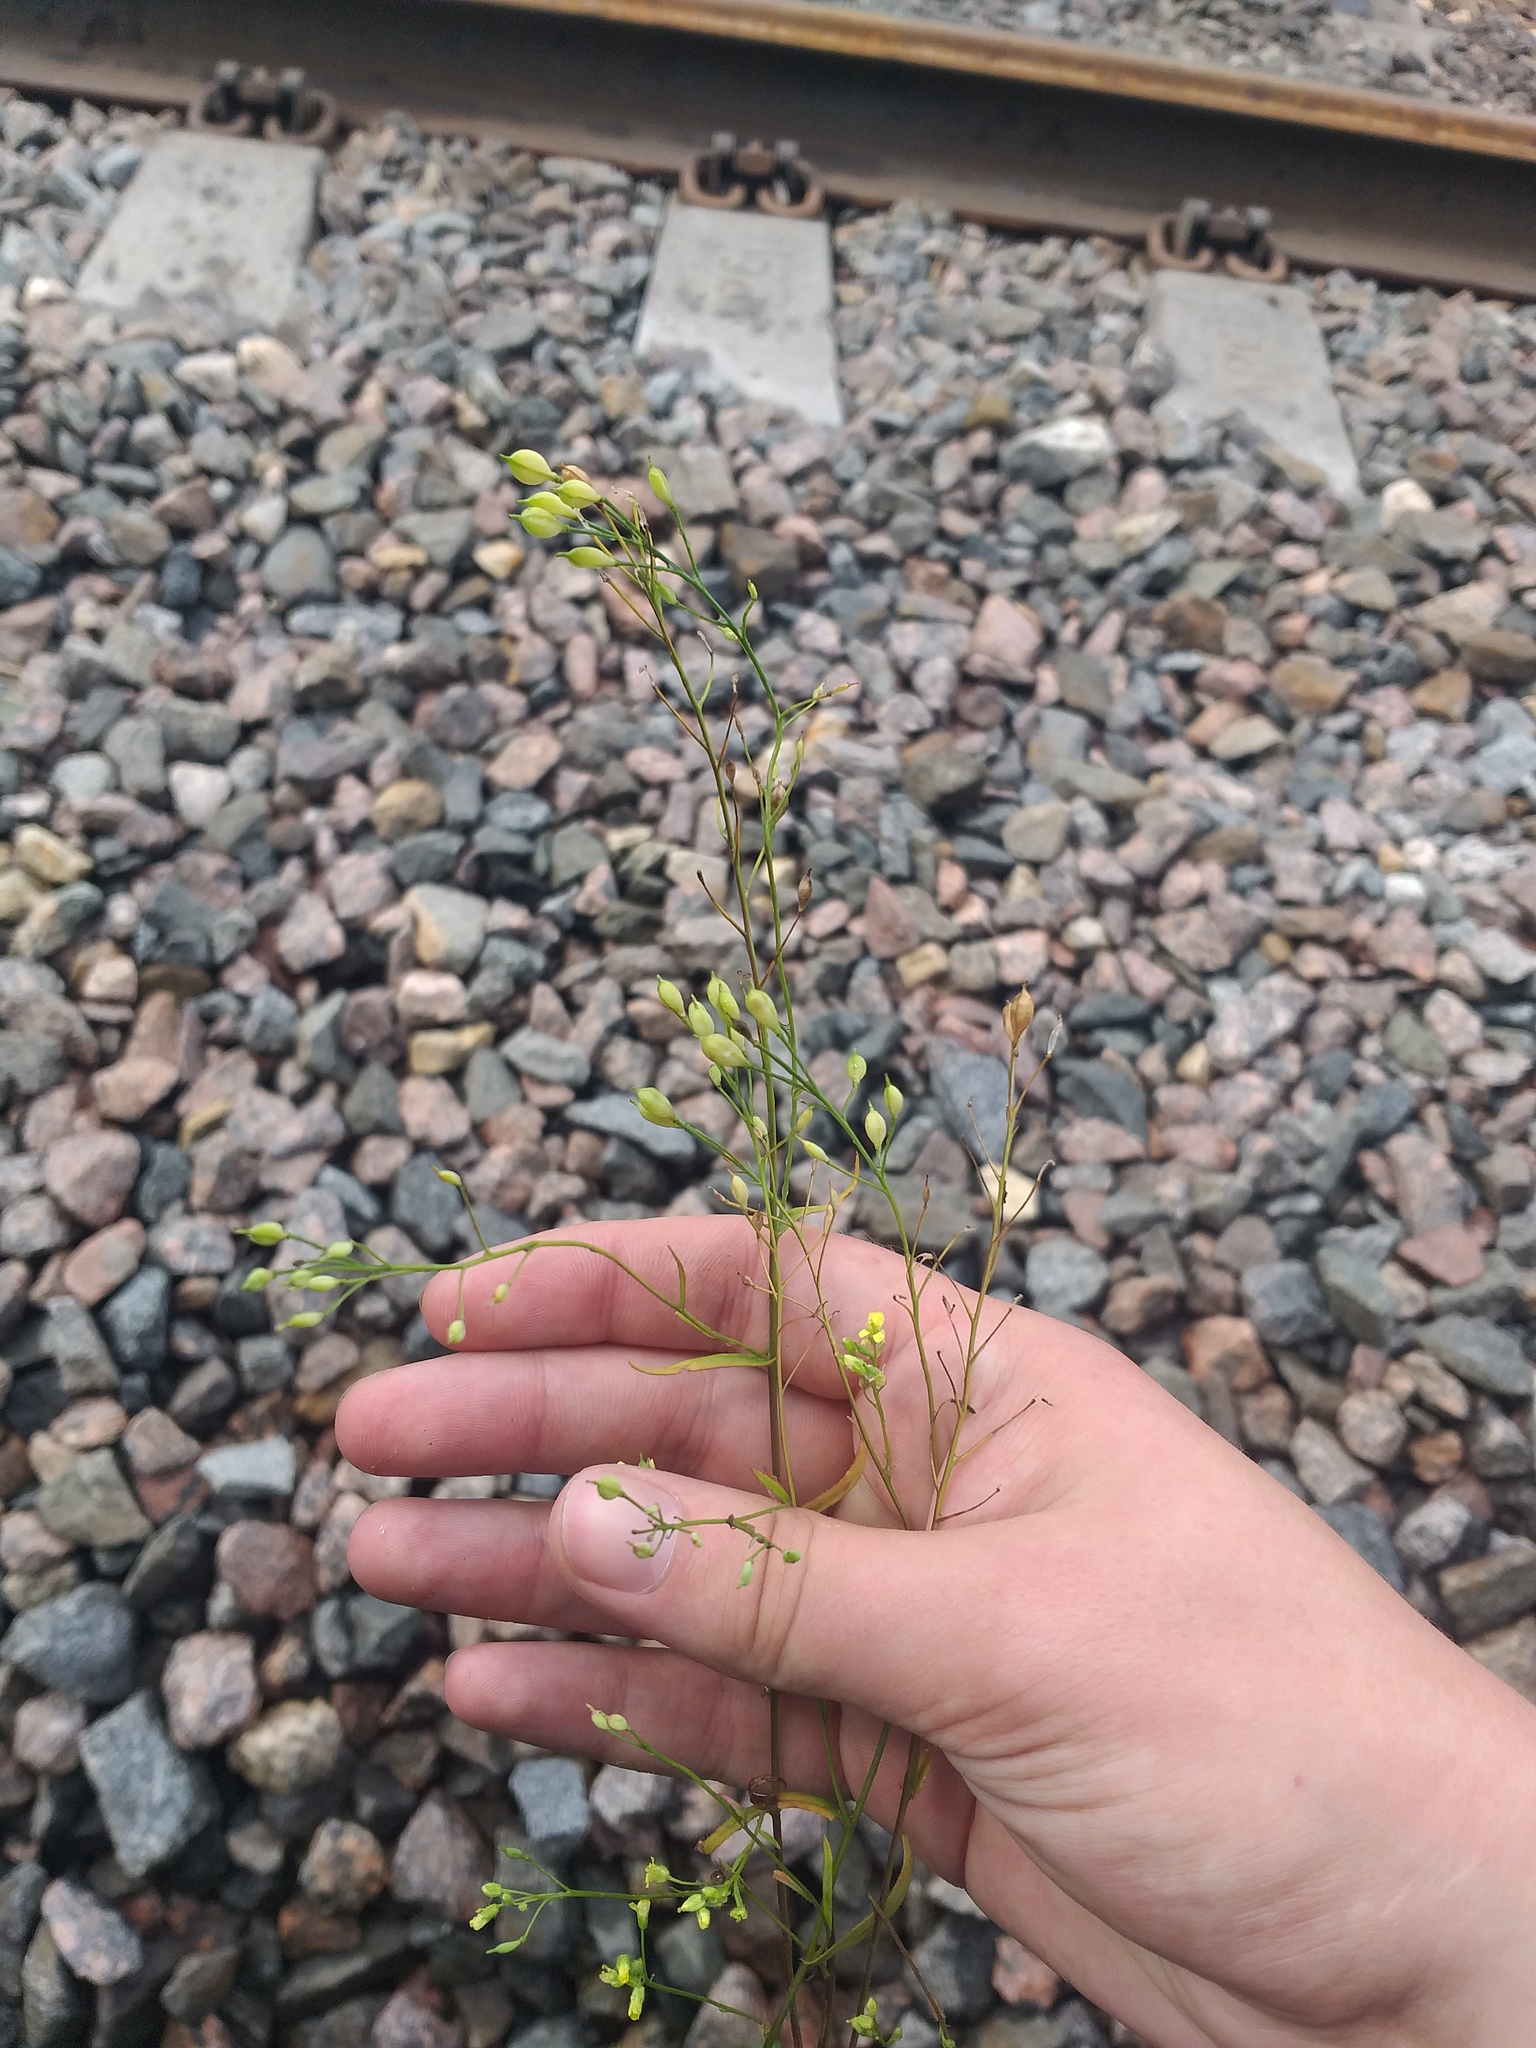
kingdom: Plantae
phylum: Tracheophyta
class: Magnoliopsida
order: Brassicales
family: Brassicaceae
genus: Camelina
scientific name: Camelina sativa
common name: Gold-of-pleasure
